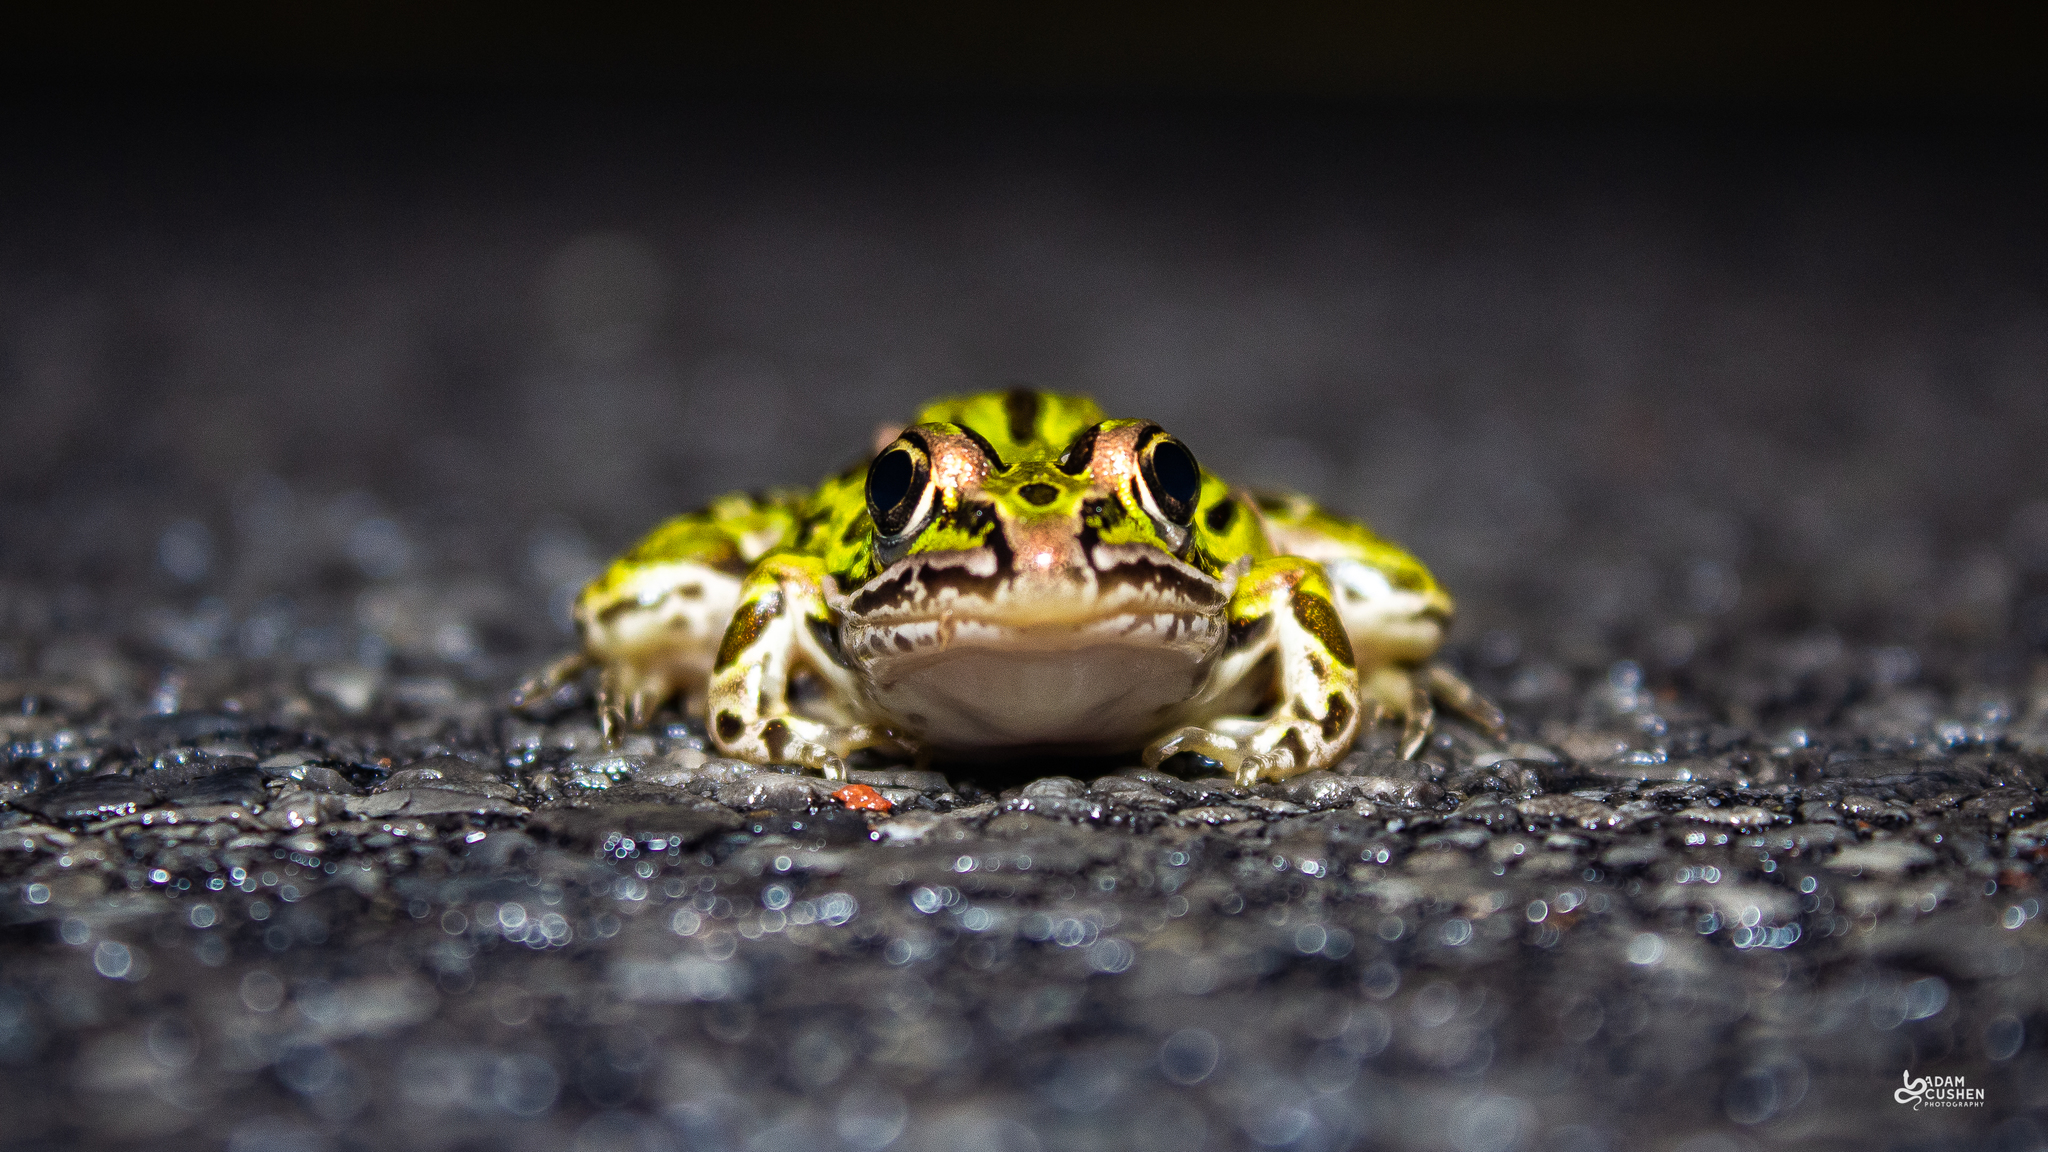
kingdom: Animalia
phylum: Chordata
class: Amphibia
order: Anura
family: Ranidae
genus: Lithobates
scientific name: Lithobates pipiens
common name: Northern leopard frog
